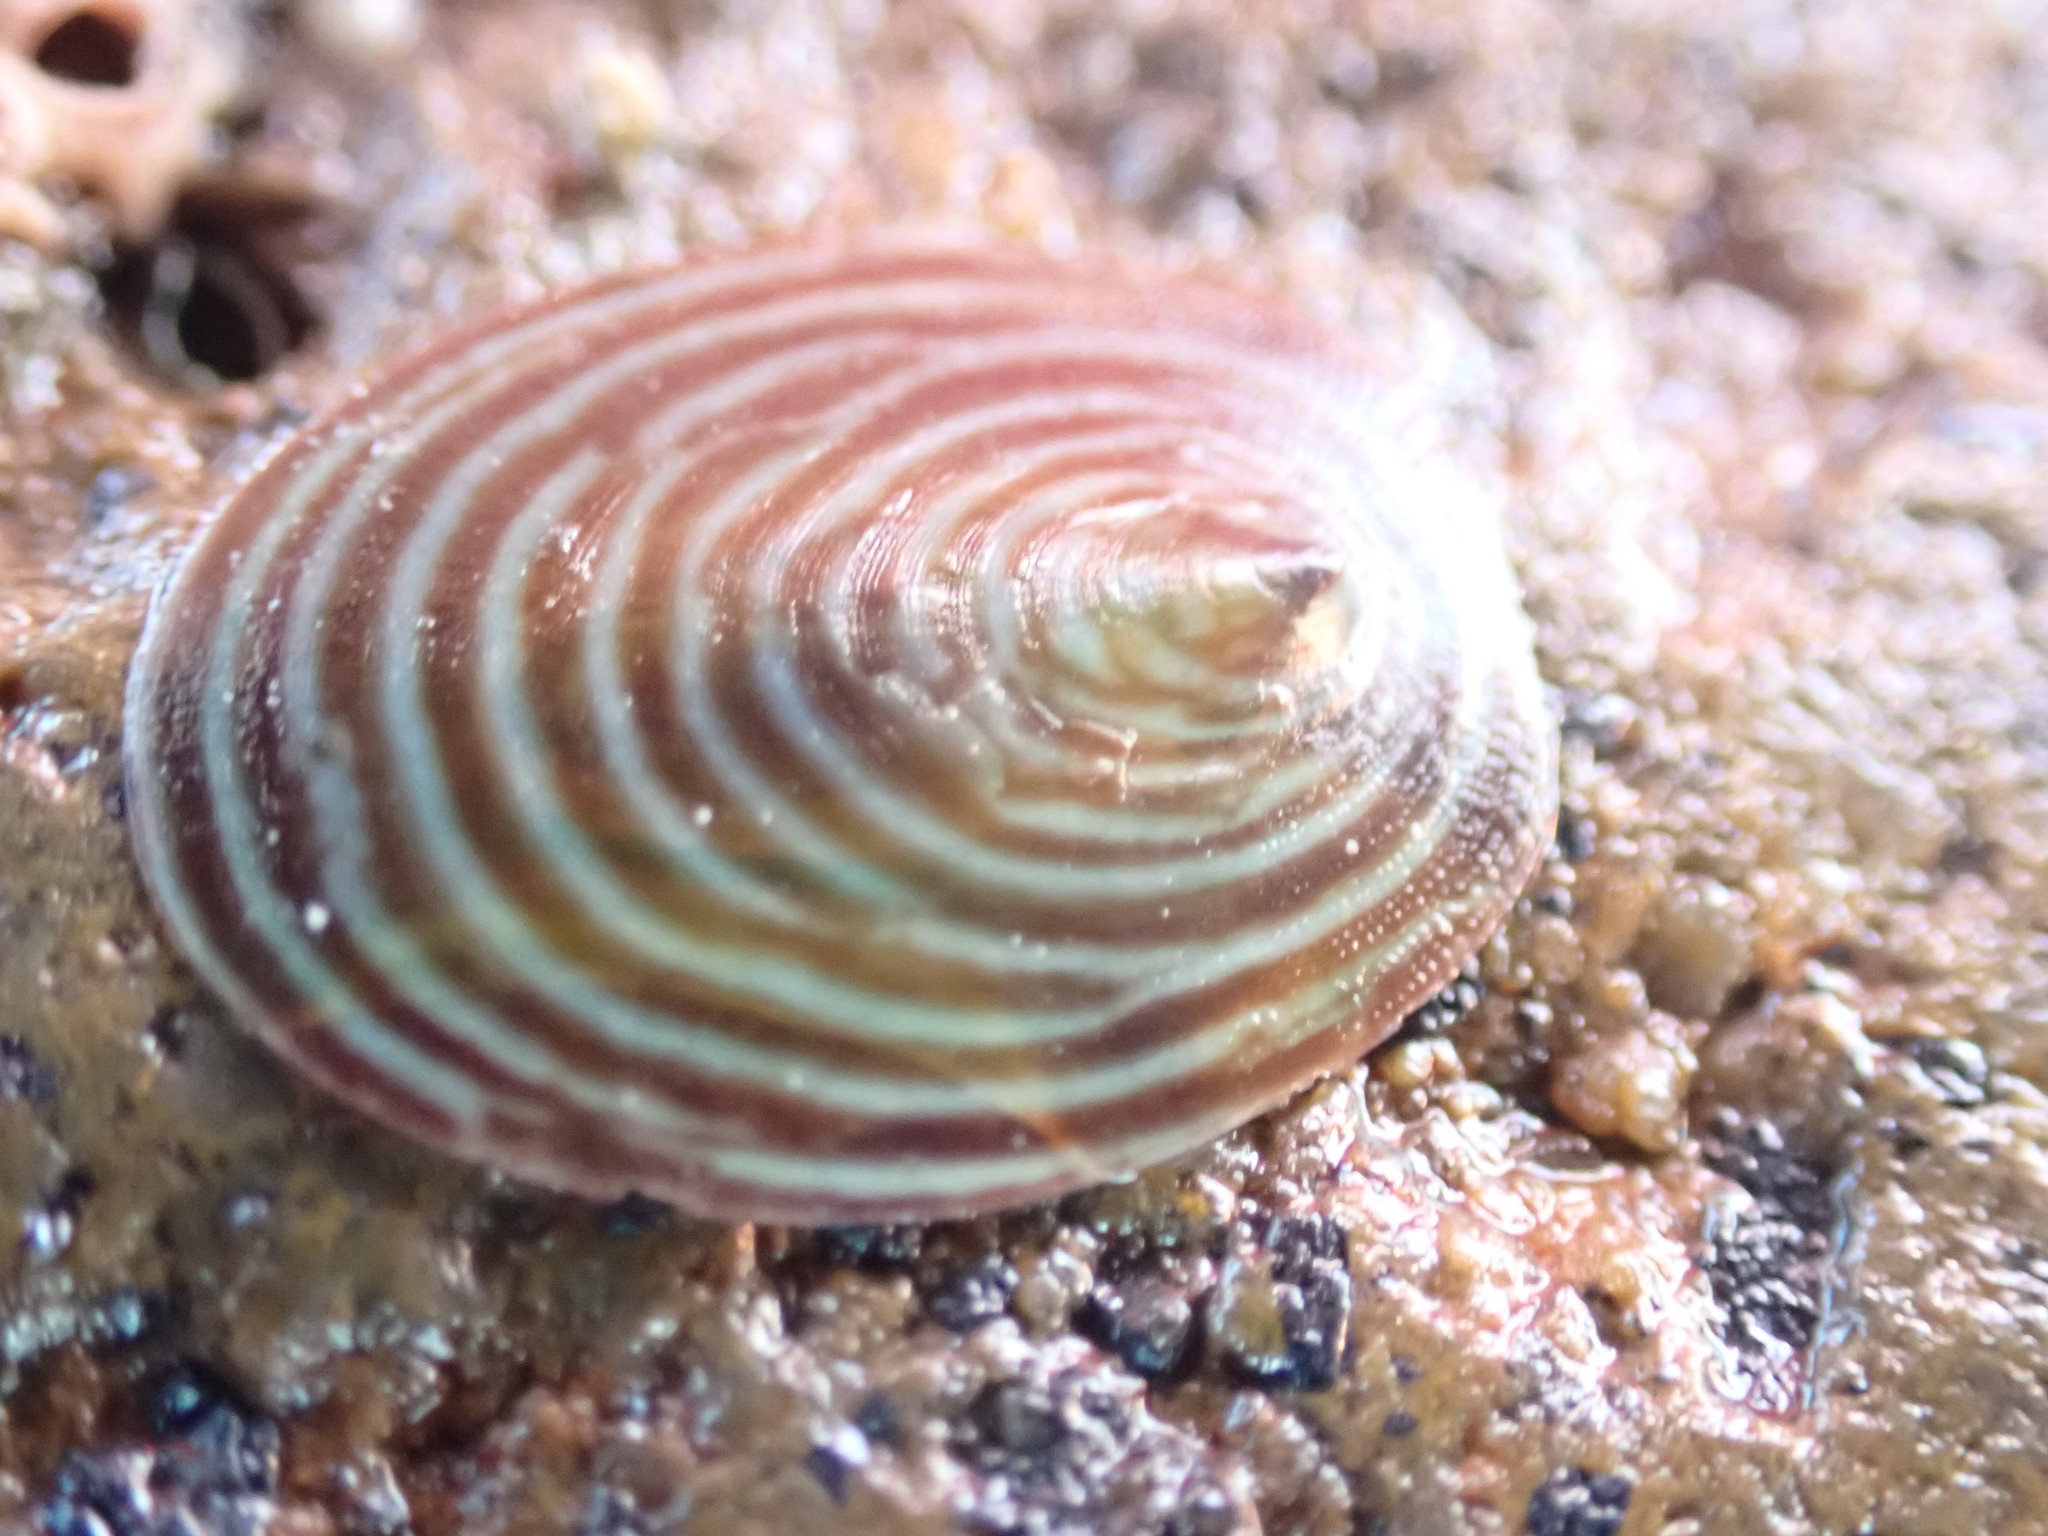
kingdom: Animalia
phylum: Mollusca
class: Gastropoda
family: Lottiidae
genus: Atalacmea
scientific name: Atalacmea fragilis
